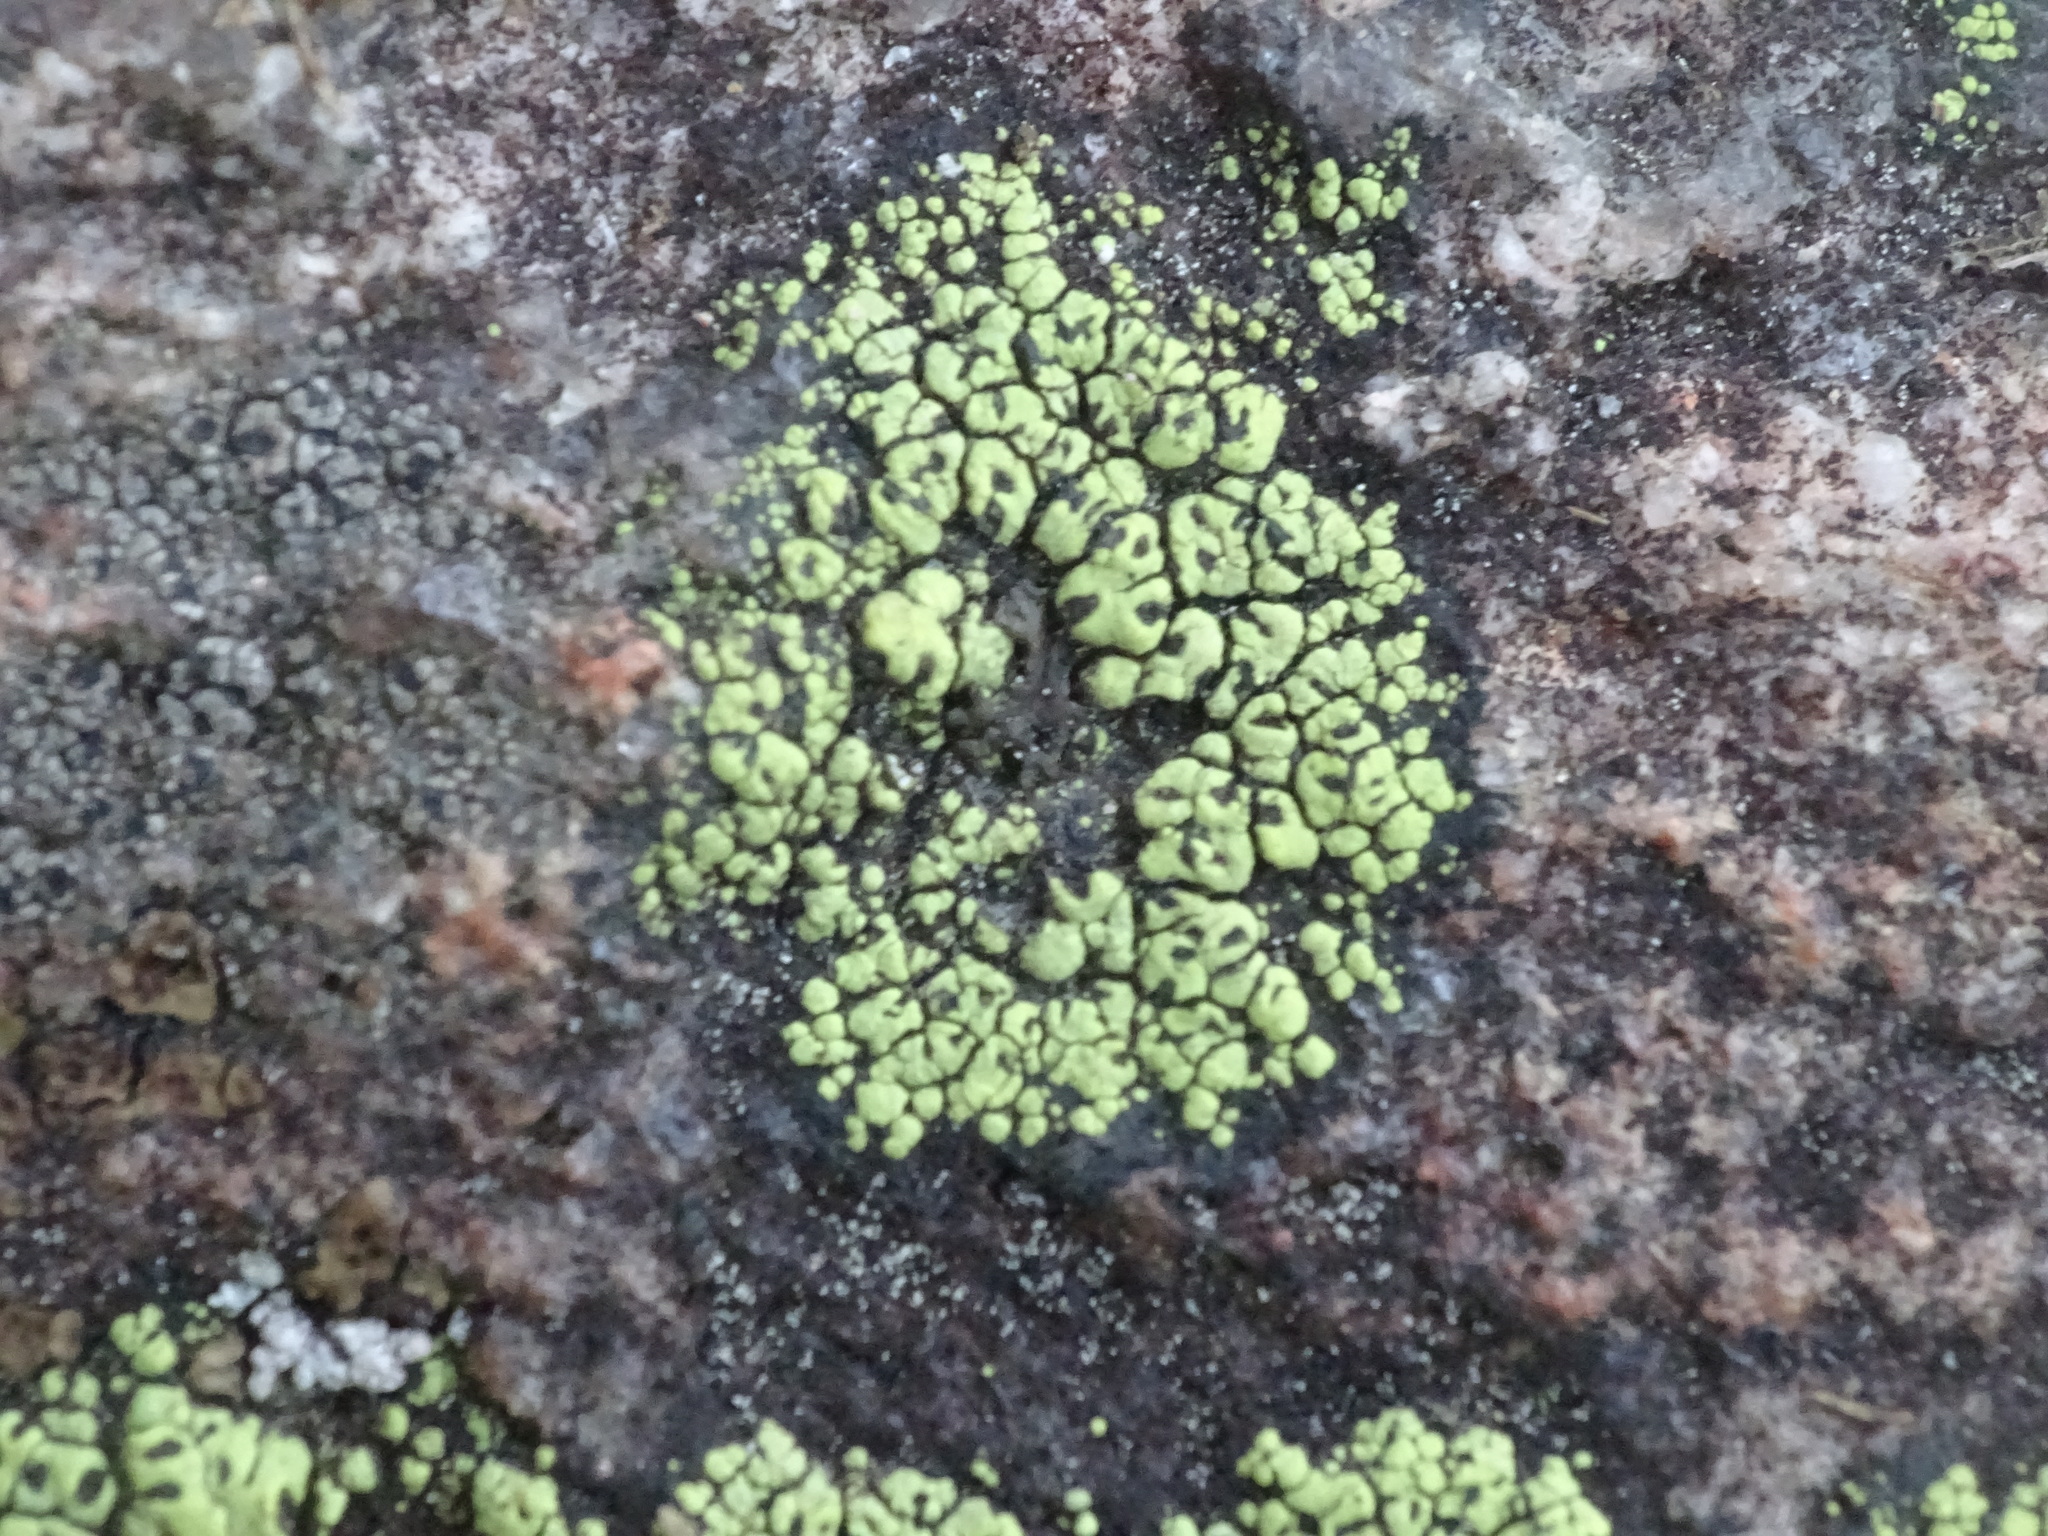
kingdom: Fungi
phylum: Ascomycota
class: Lecanoromycetes
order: Rhizocarpales
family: Rhizocarpaceae
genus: Rhizocarpon
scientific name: Rhizocarpon lecanorinum
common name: Crescent map lichen
